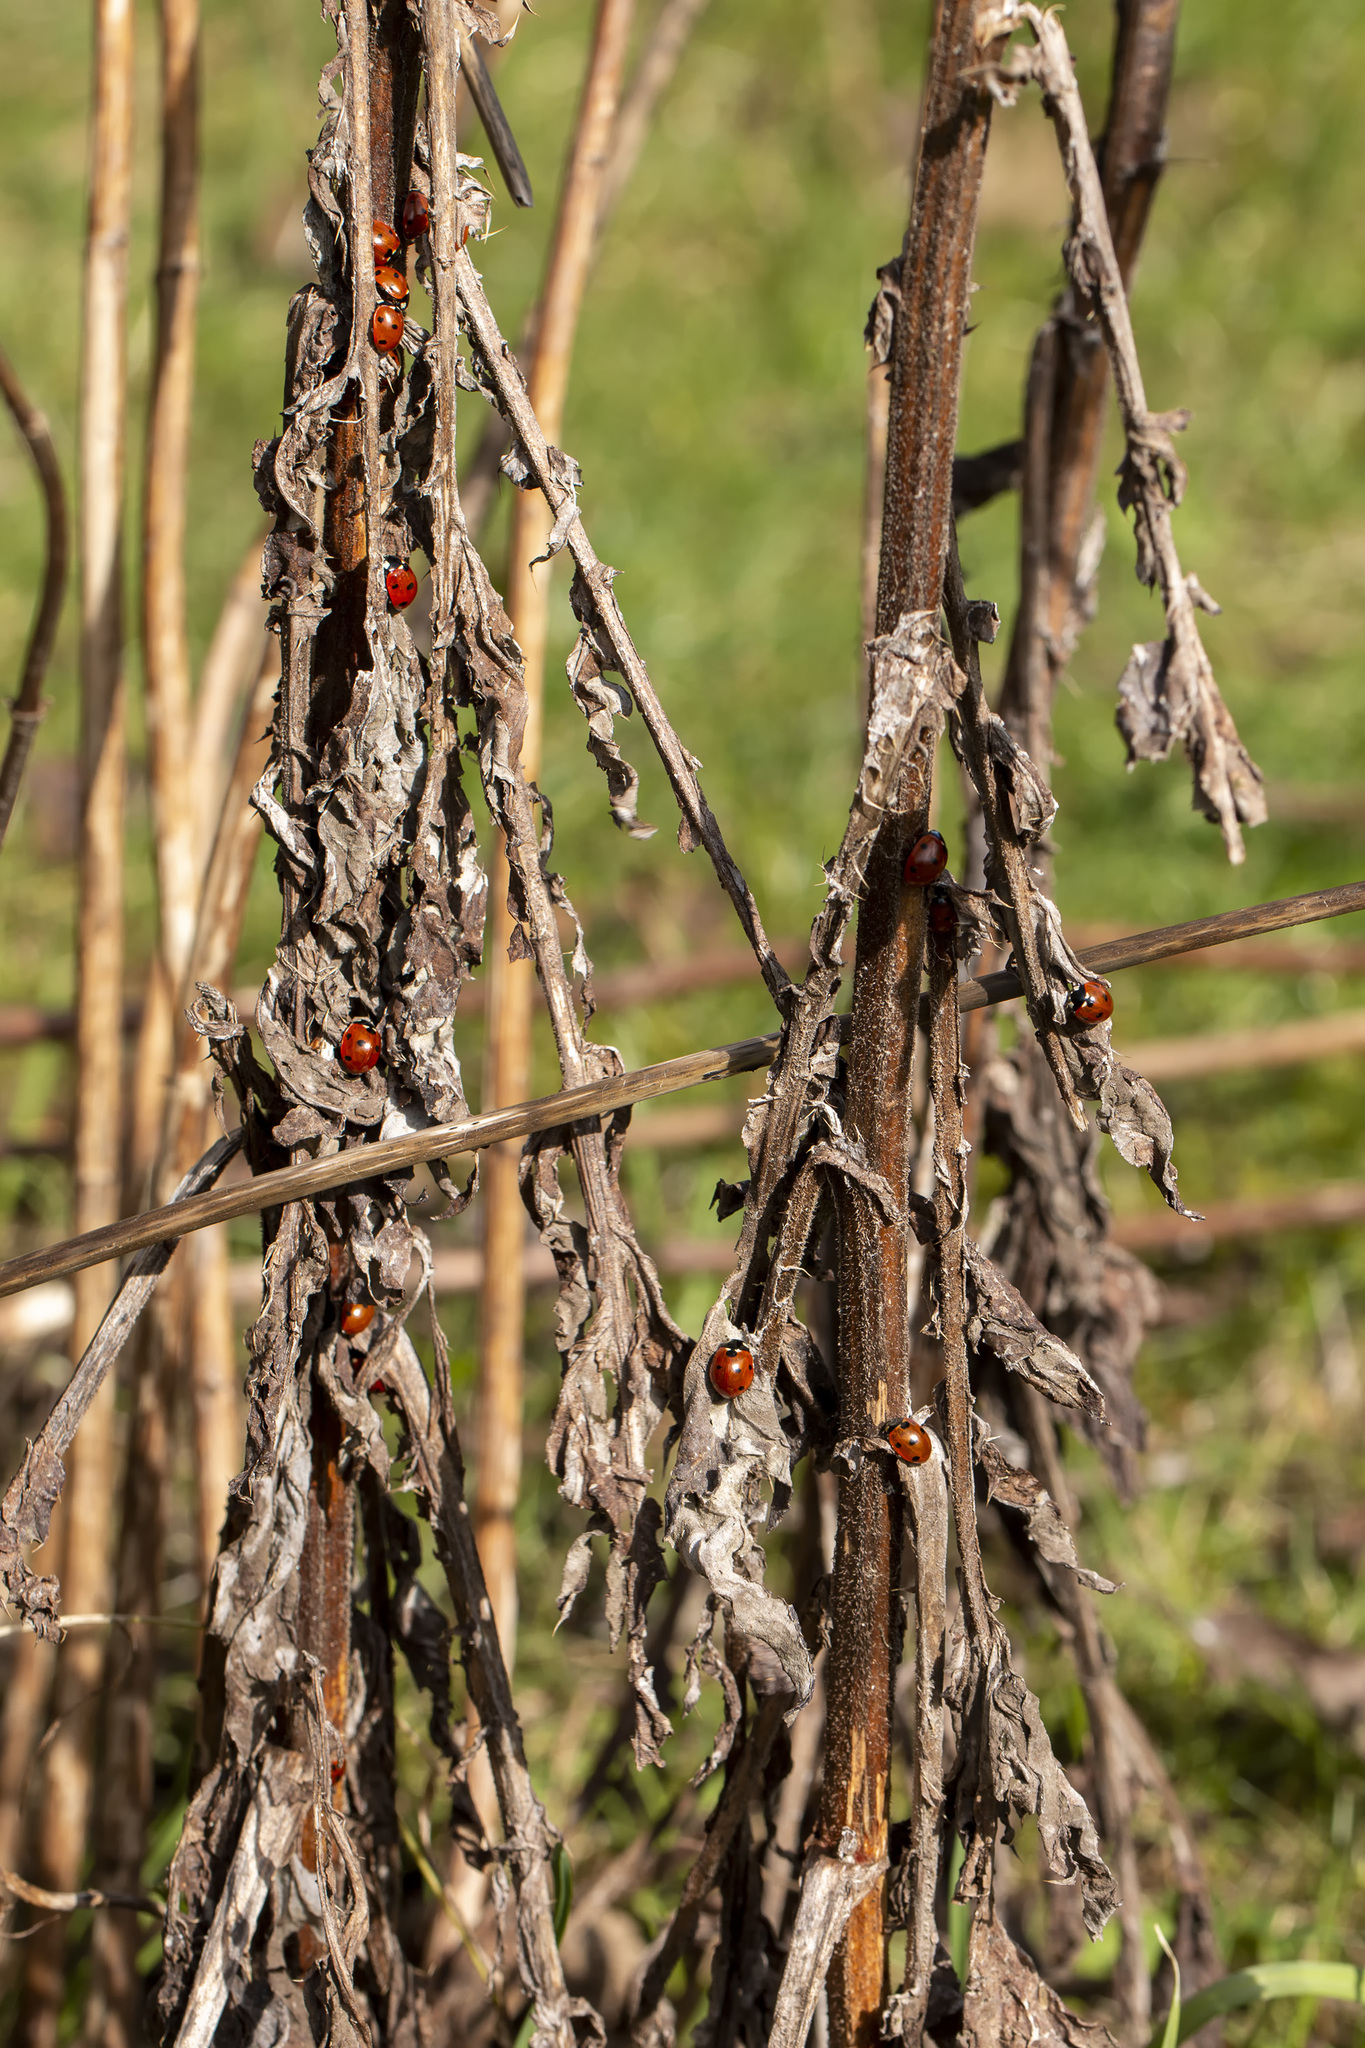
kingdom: Animalia
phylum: Arthropoda
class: Insecta
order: Coleoptera
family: Coccinellidae
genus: Coccinella
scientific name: Coccinella septempunctata
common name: Sevenspotted lady beetle
